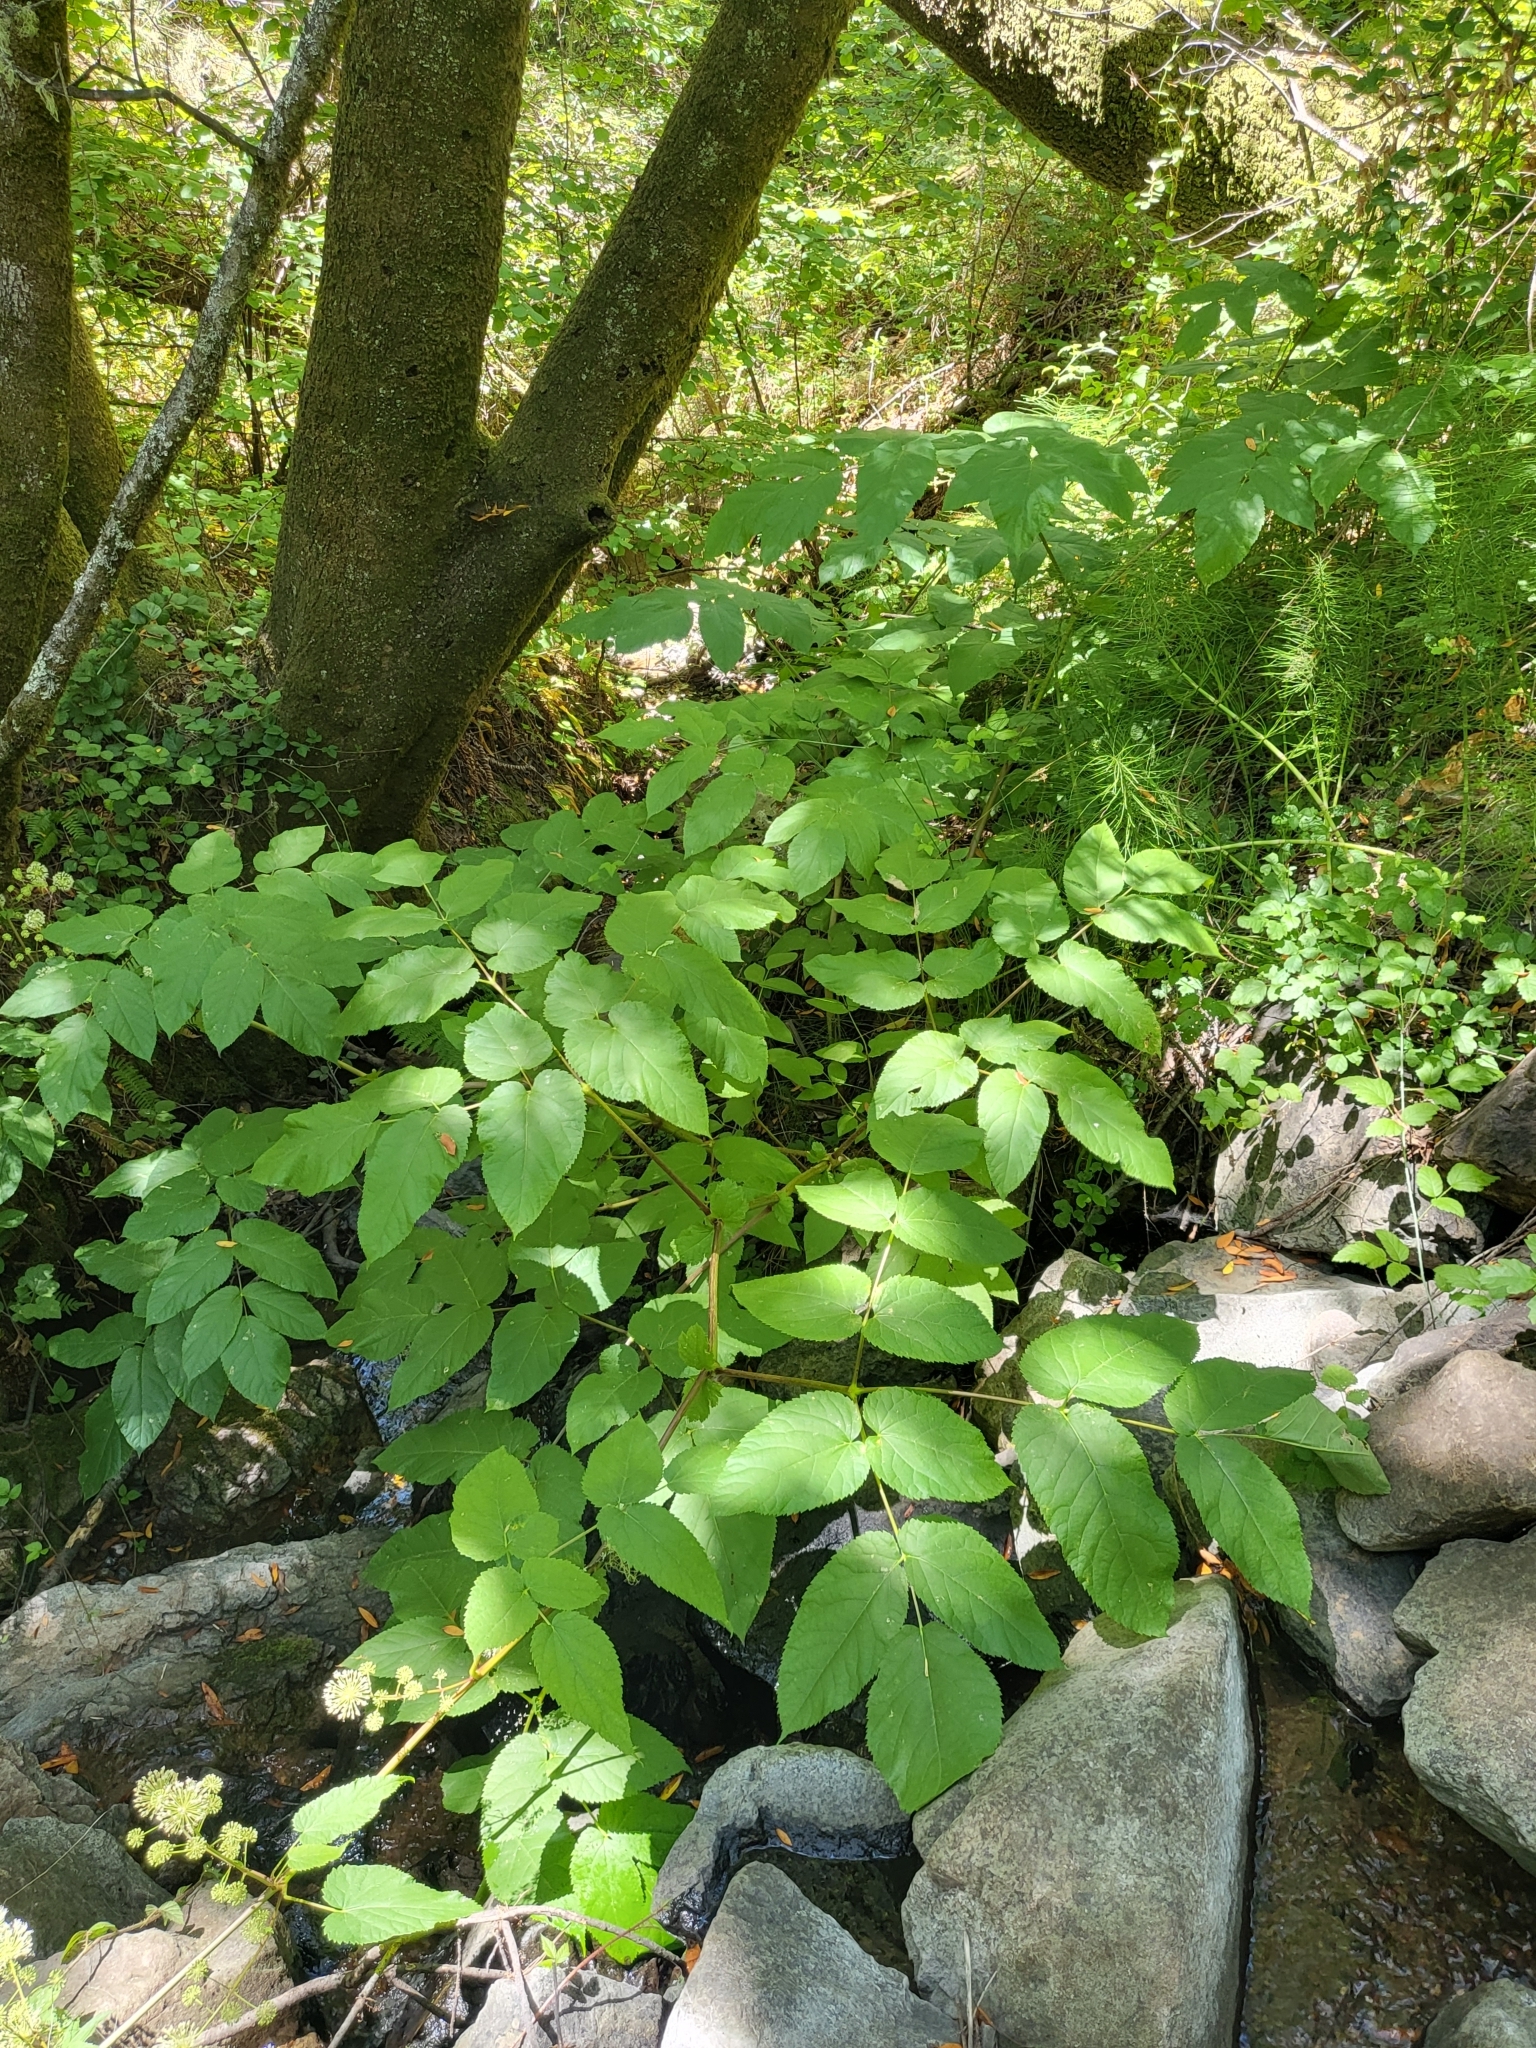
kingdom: Plantae
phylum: Tracheophyta
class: Magnoliopsida
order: Apiales
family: Araliaceae
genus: Aralia
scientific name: Aralia californica
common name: California-ginseng
